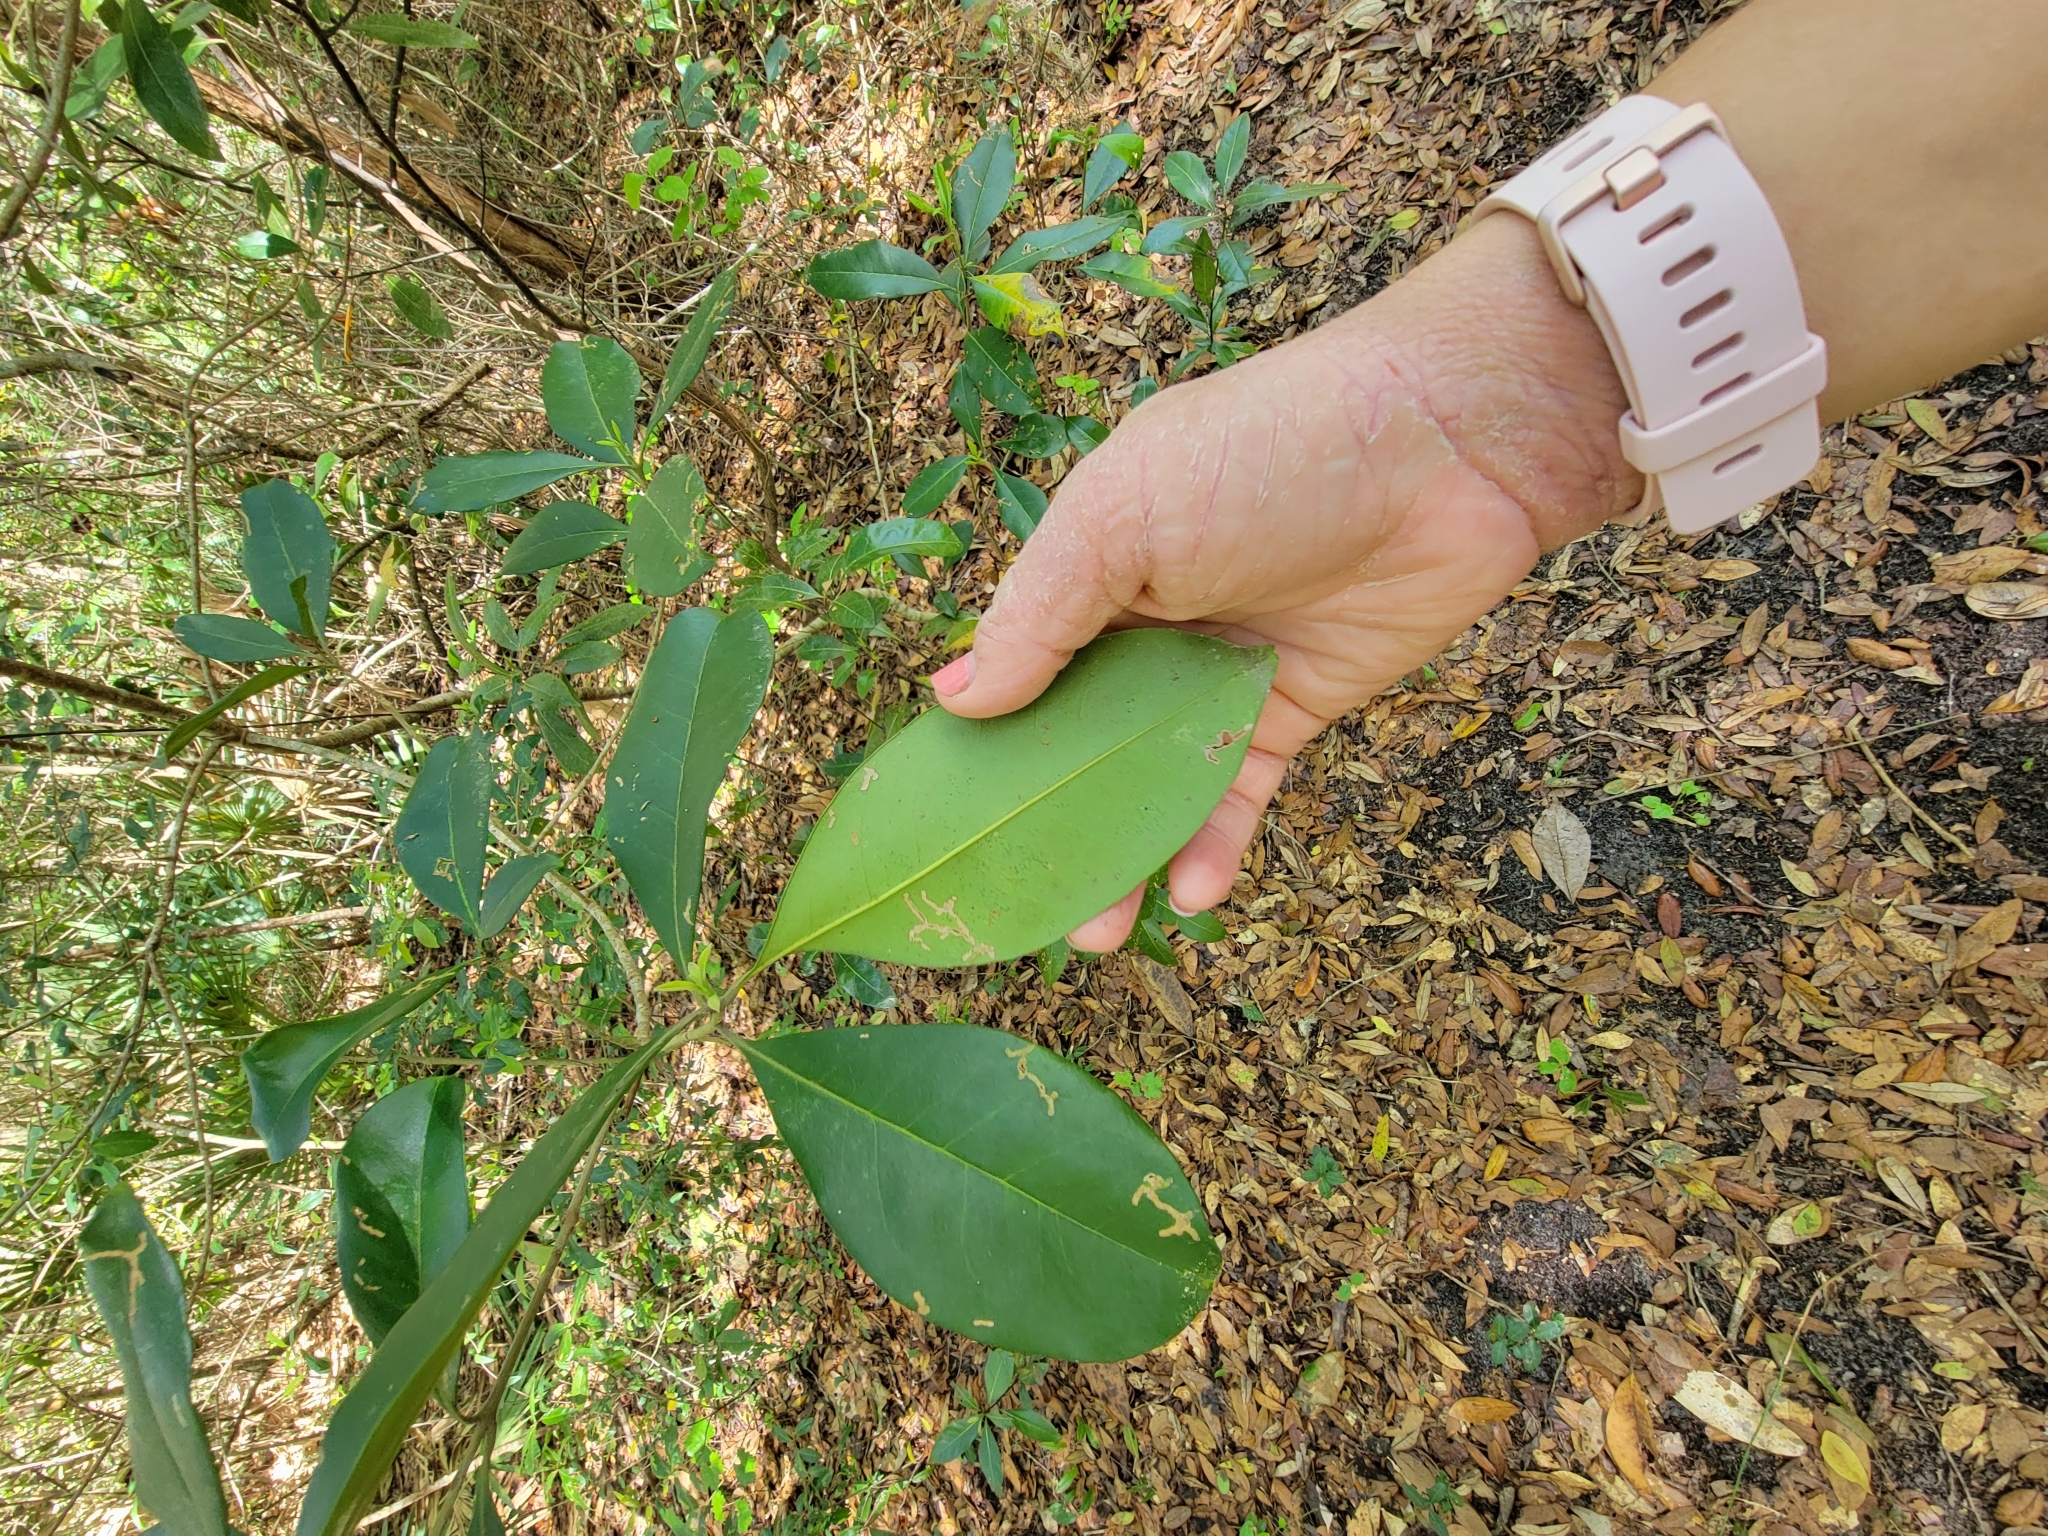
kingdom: Plantae
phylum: Tracheophyta
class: Magnoliopsida
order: Lamiales
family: Oleaceae
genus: Cartrema
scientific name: Cartrema americana
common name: Devilwood
